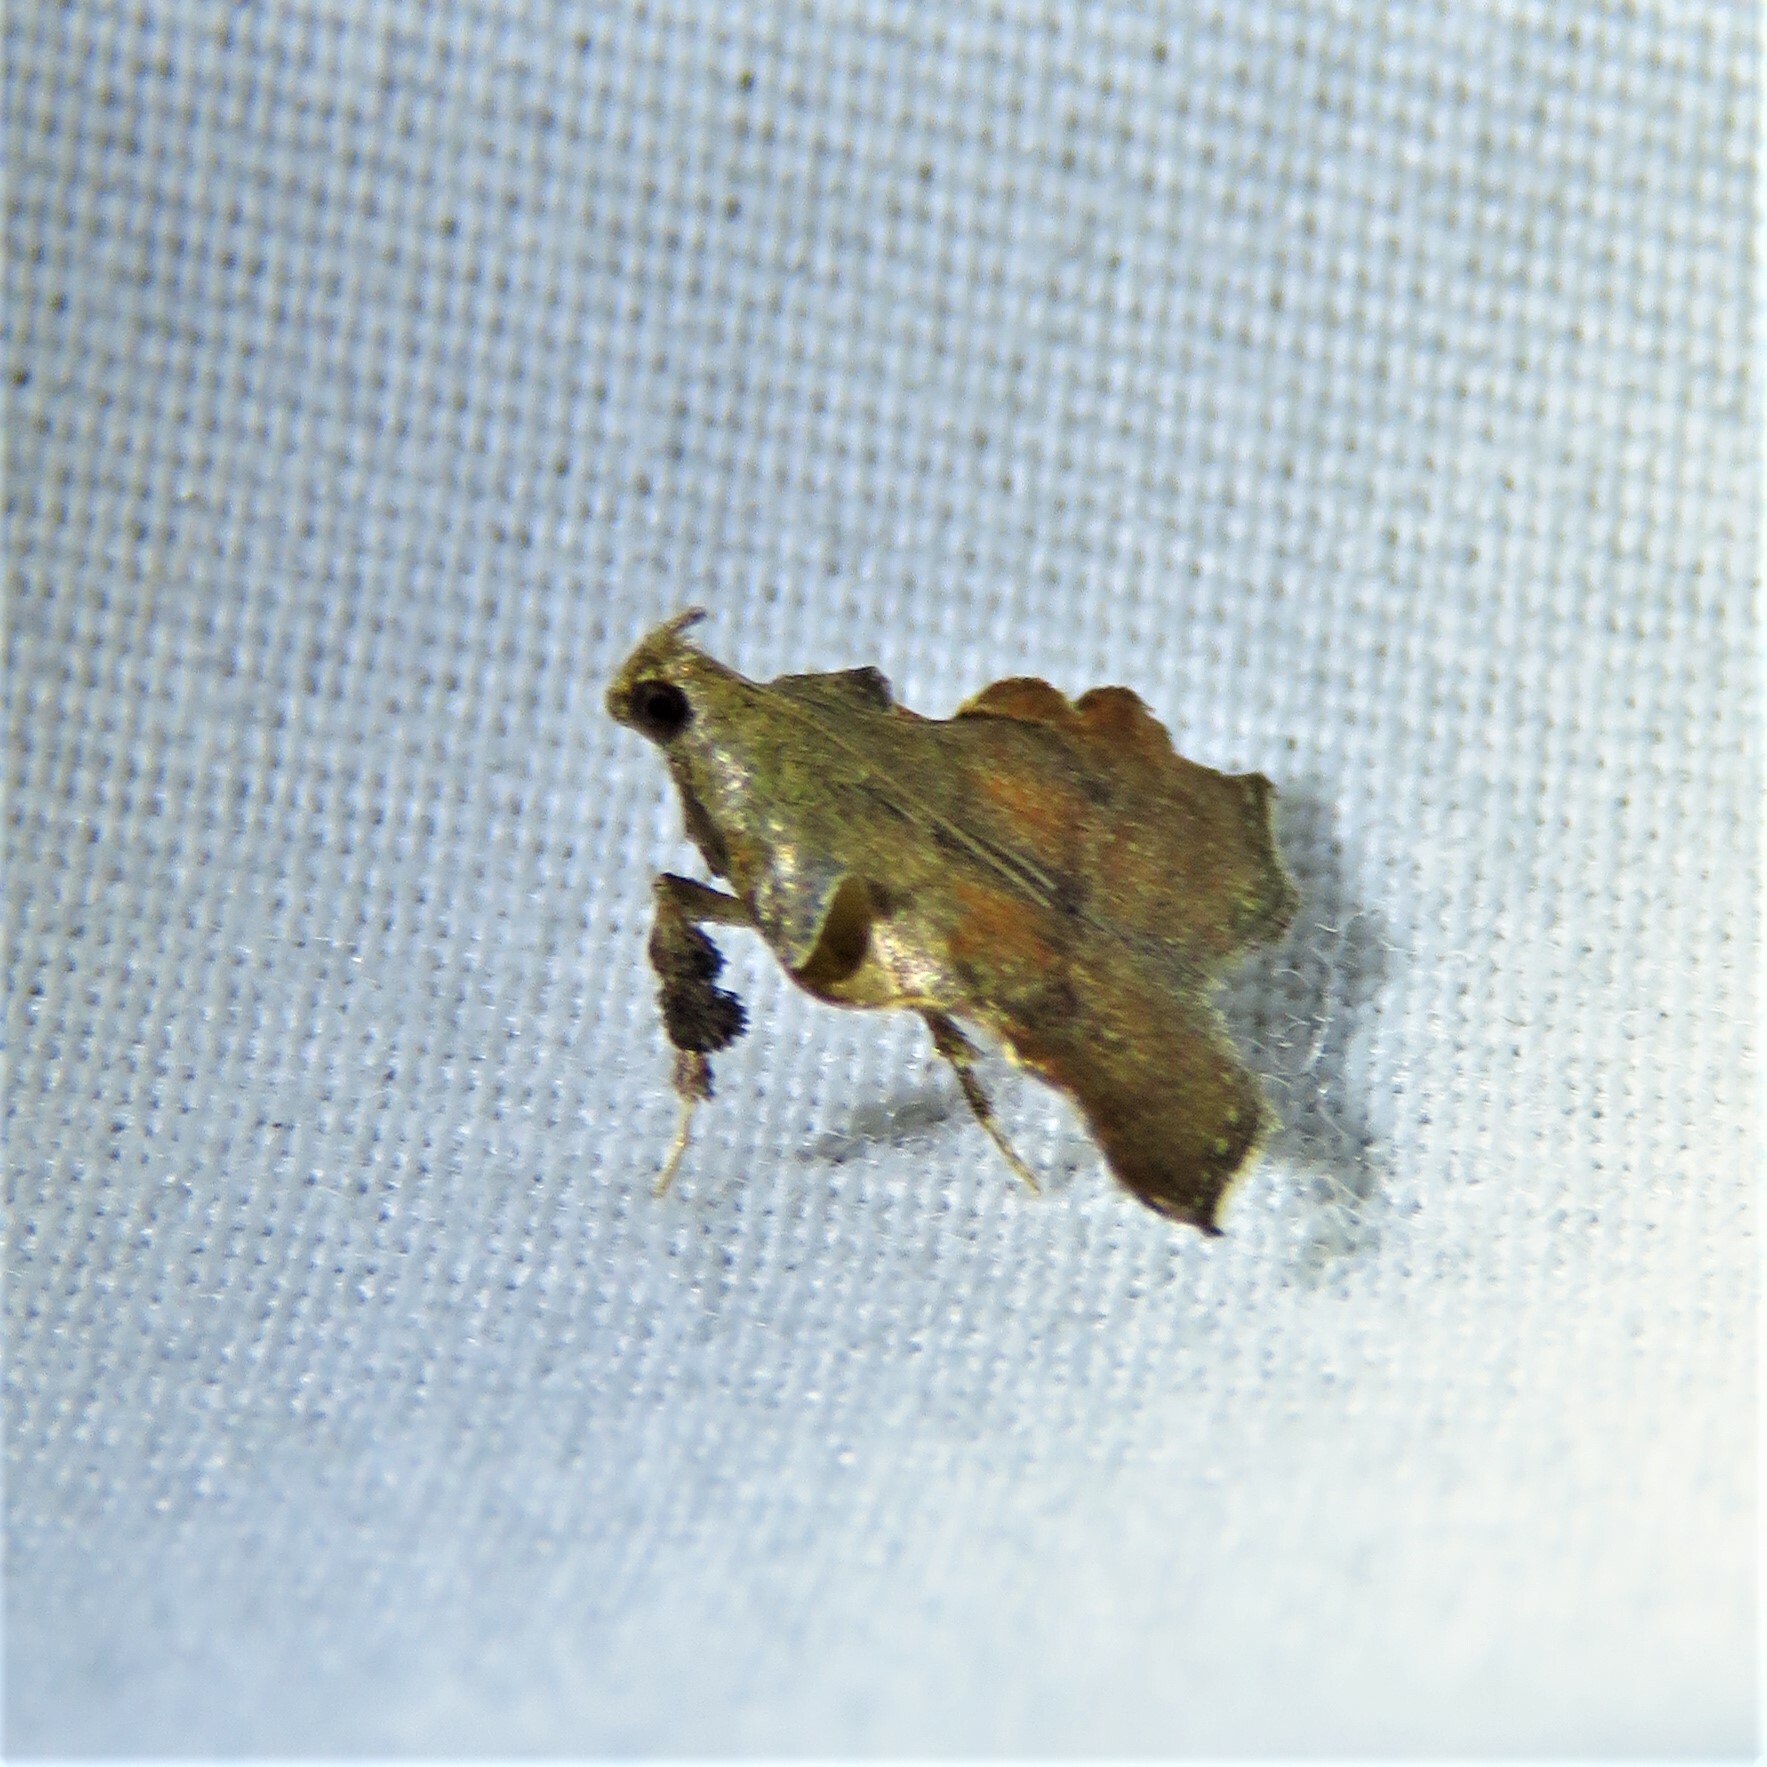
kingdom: Animalia
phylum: Arthropoda
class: Insecta
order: Lepidoptera
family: Pyralidae
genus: Salobrena
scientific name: Salobrena sincera
